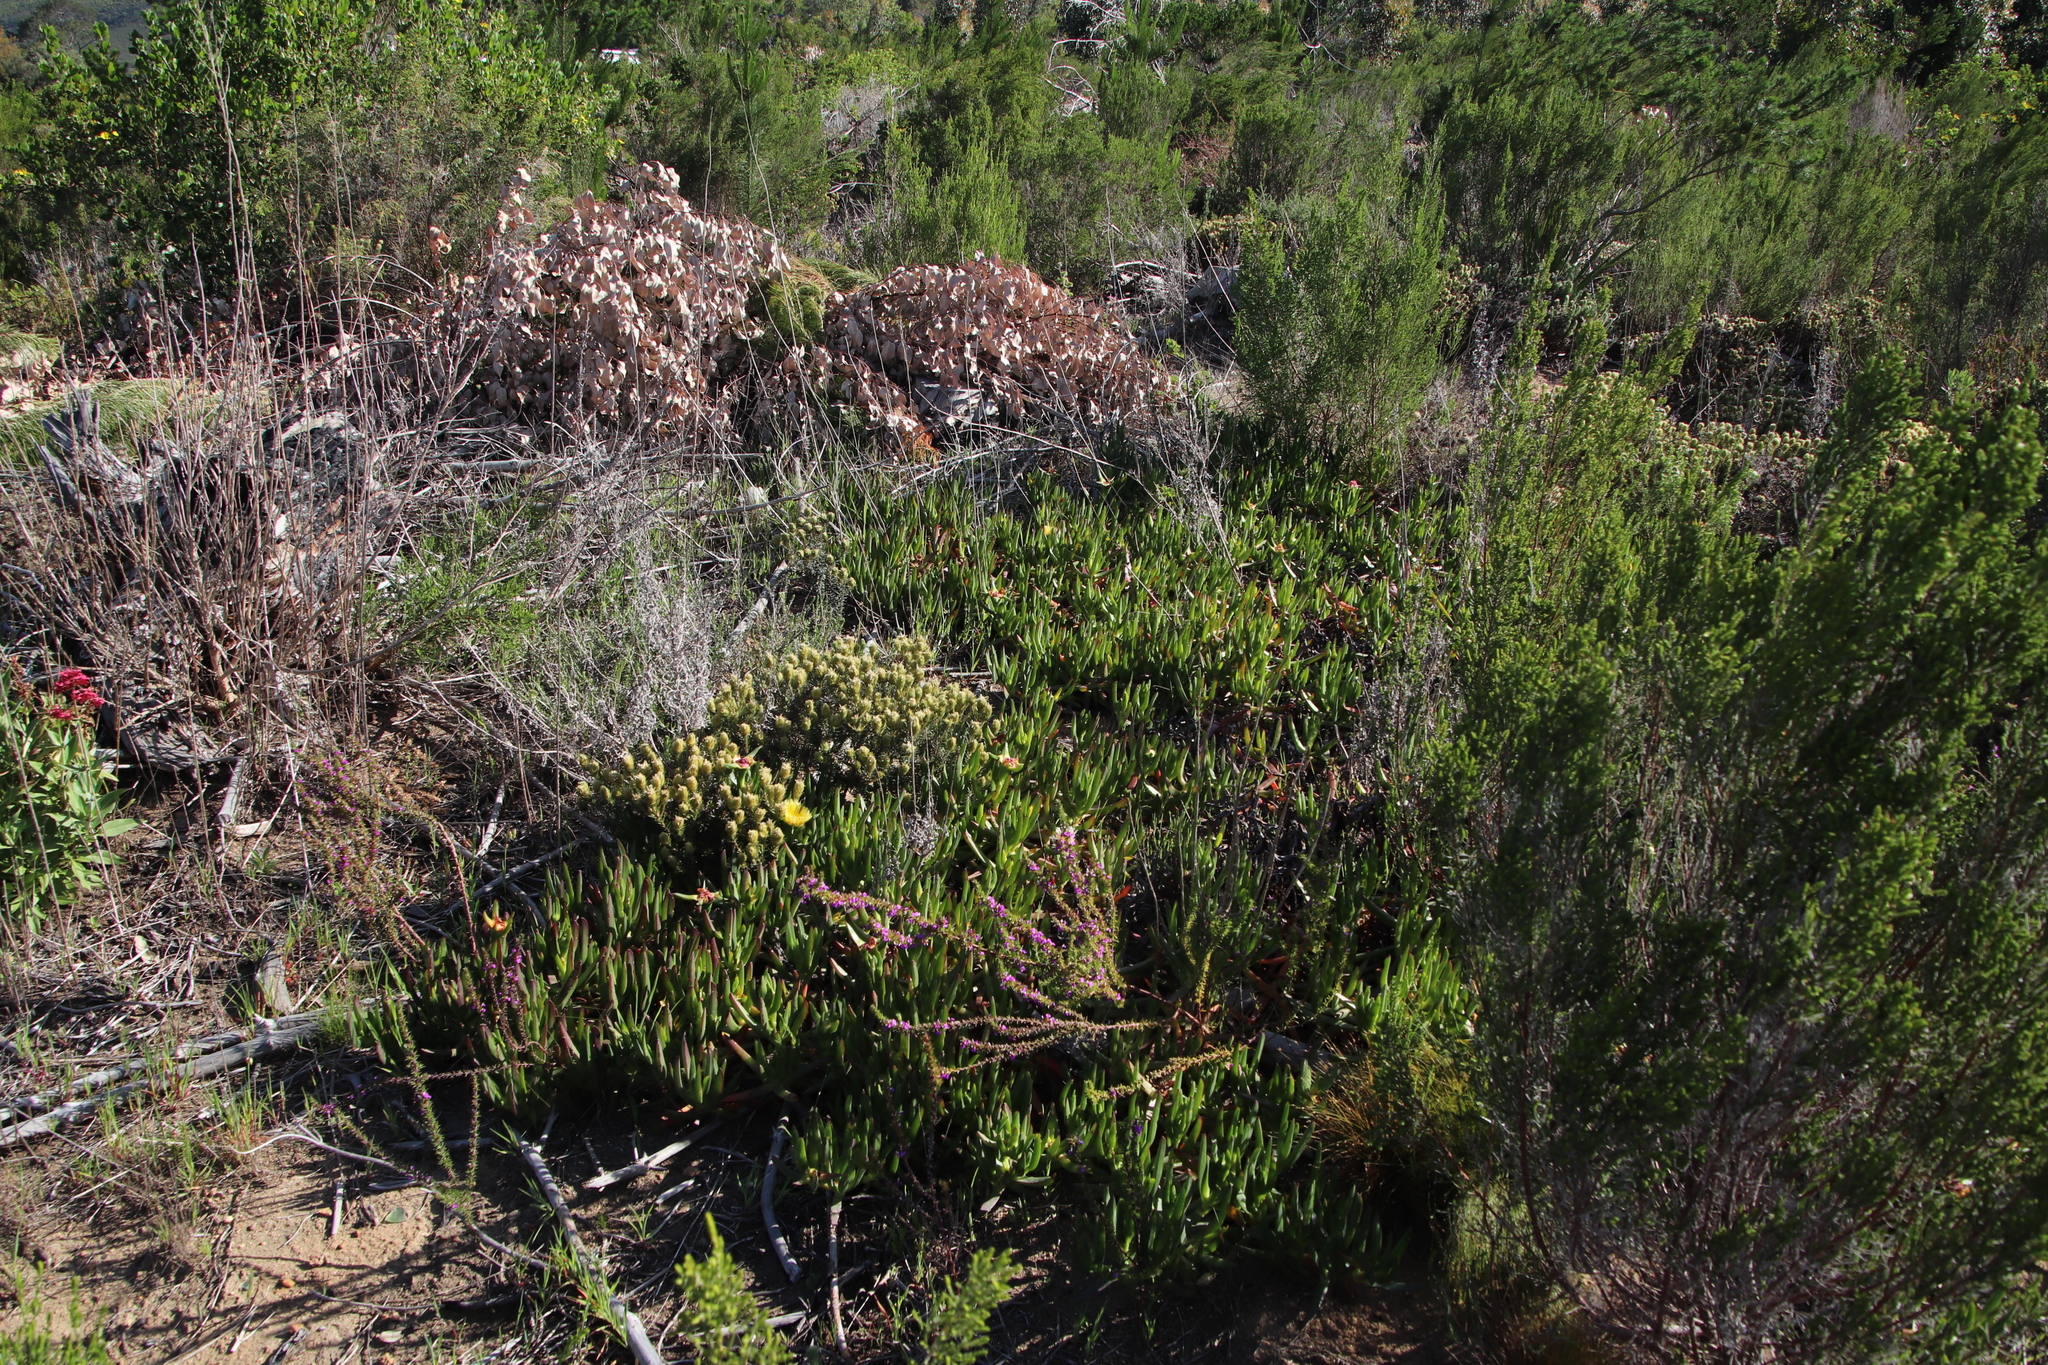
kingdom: Plantae
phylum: Tracheophyta
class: Magnoliopsida
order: Caryophyllales
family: Aizoaceae
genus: Carpobrotus
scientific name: Carpobrotus edulis
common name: Hottentot-fig
